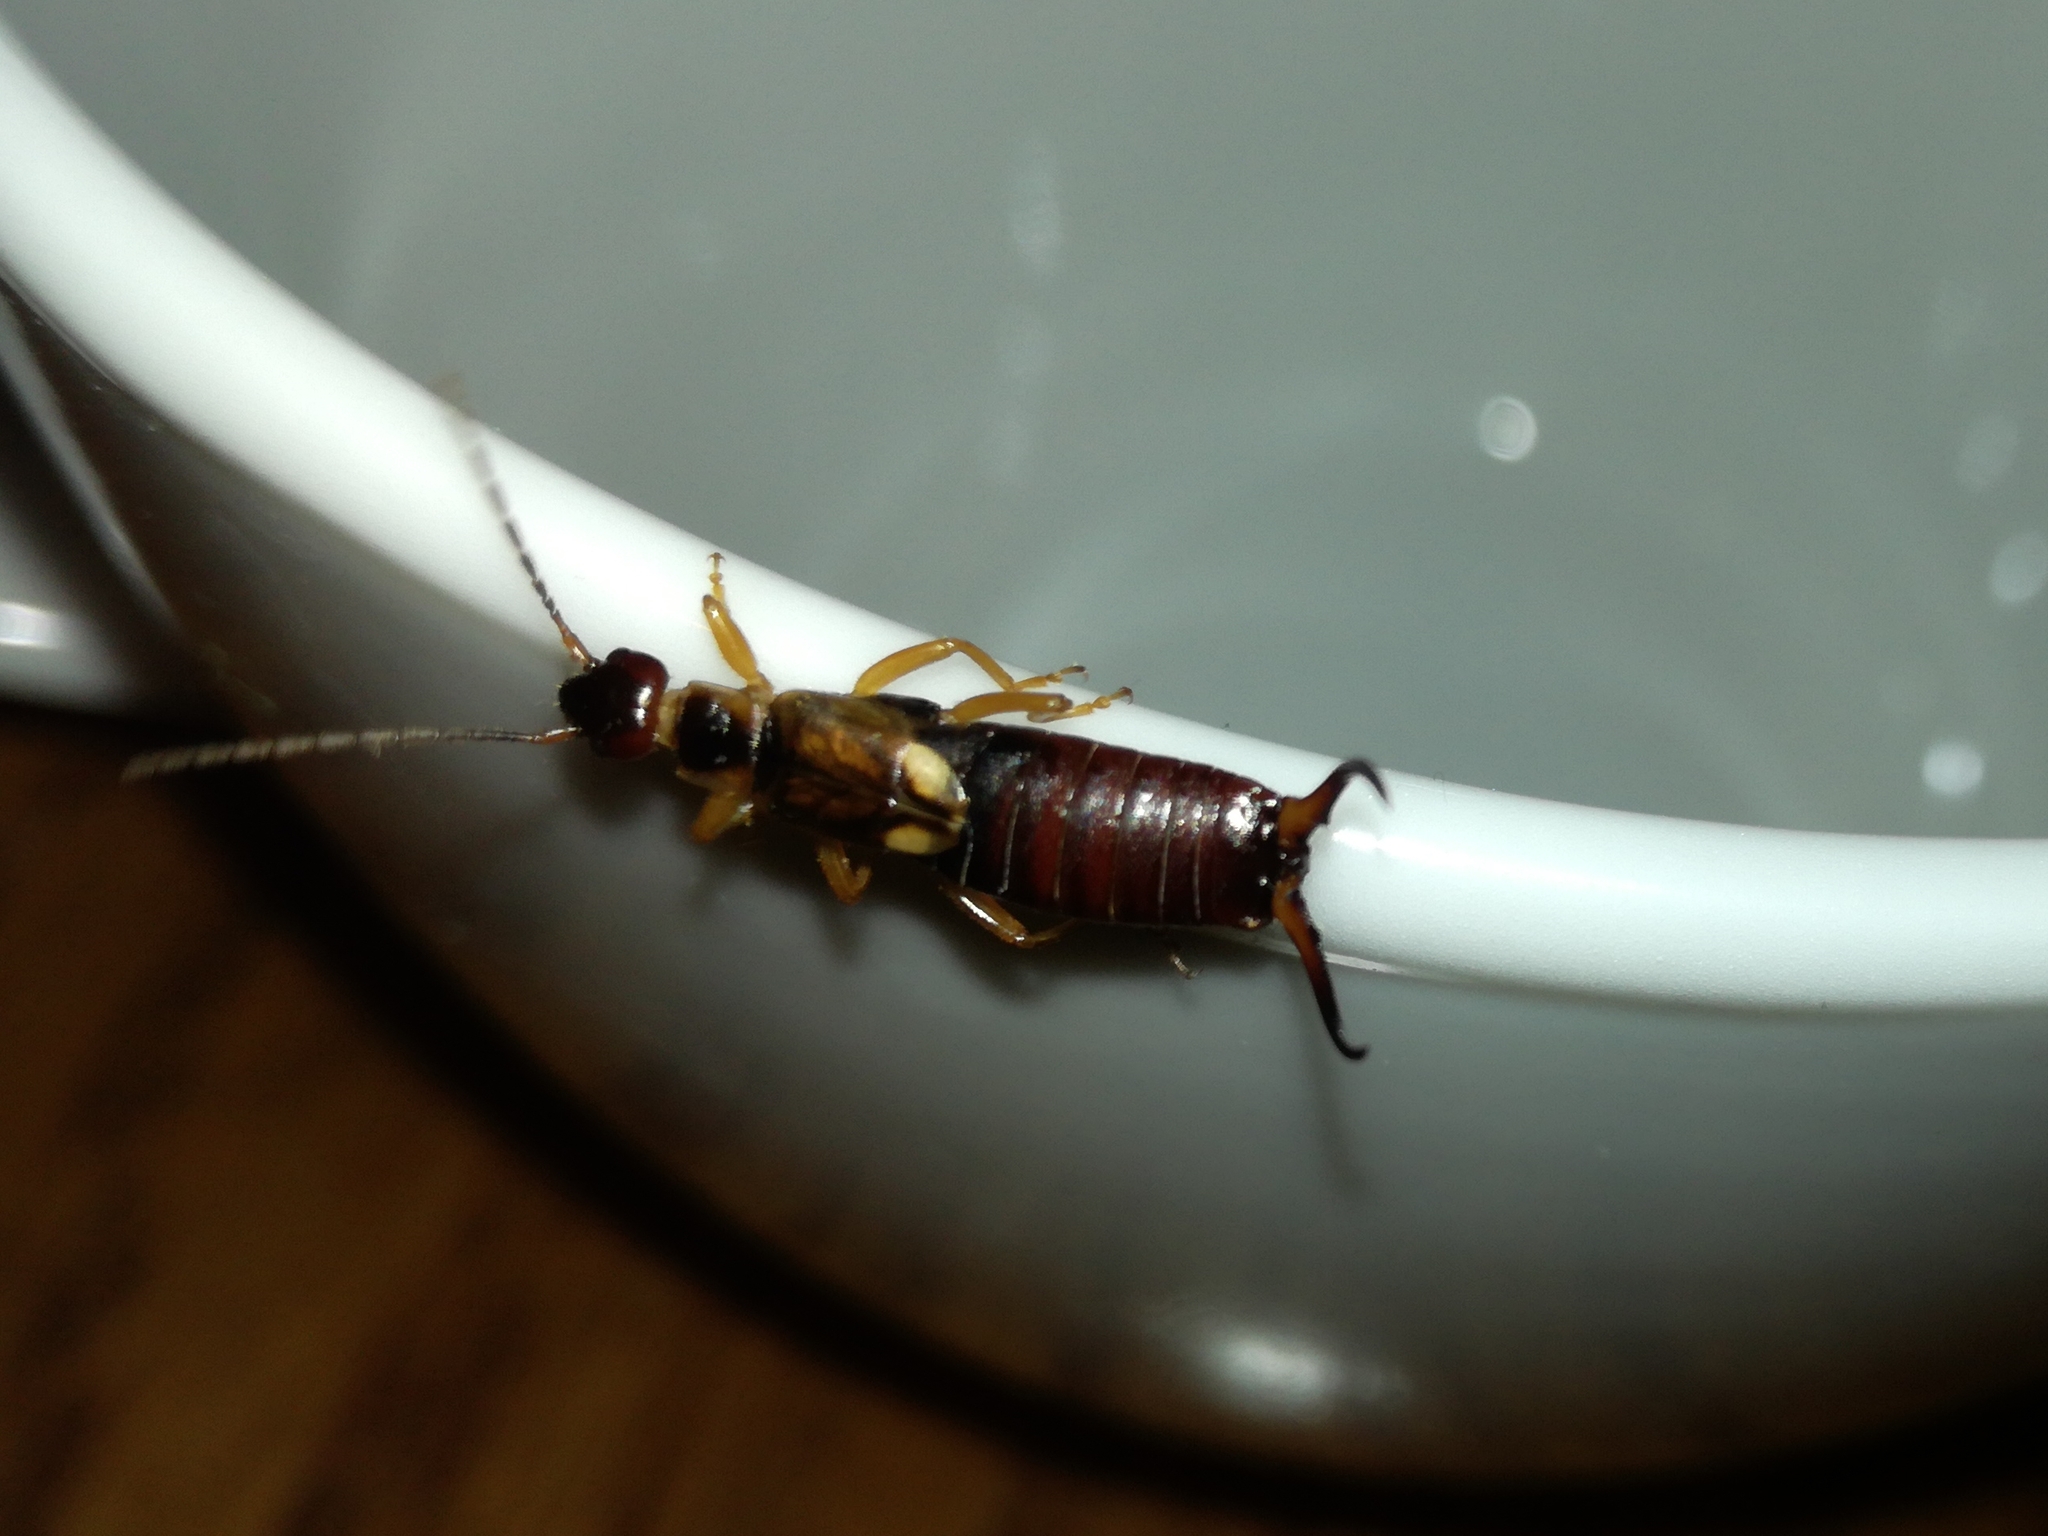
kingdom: Animalia
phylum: Arthropoda
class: Insecta
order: Dermaptera
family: Forficulidae
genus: Forficula
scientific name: Forficula
